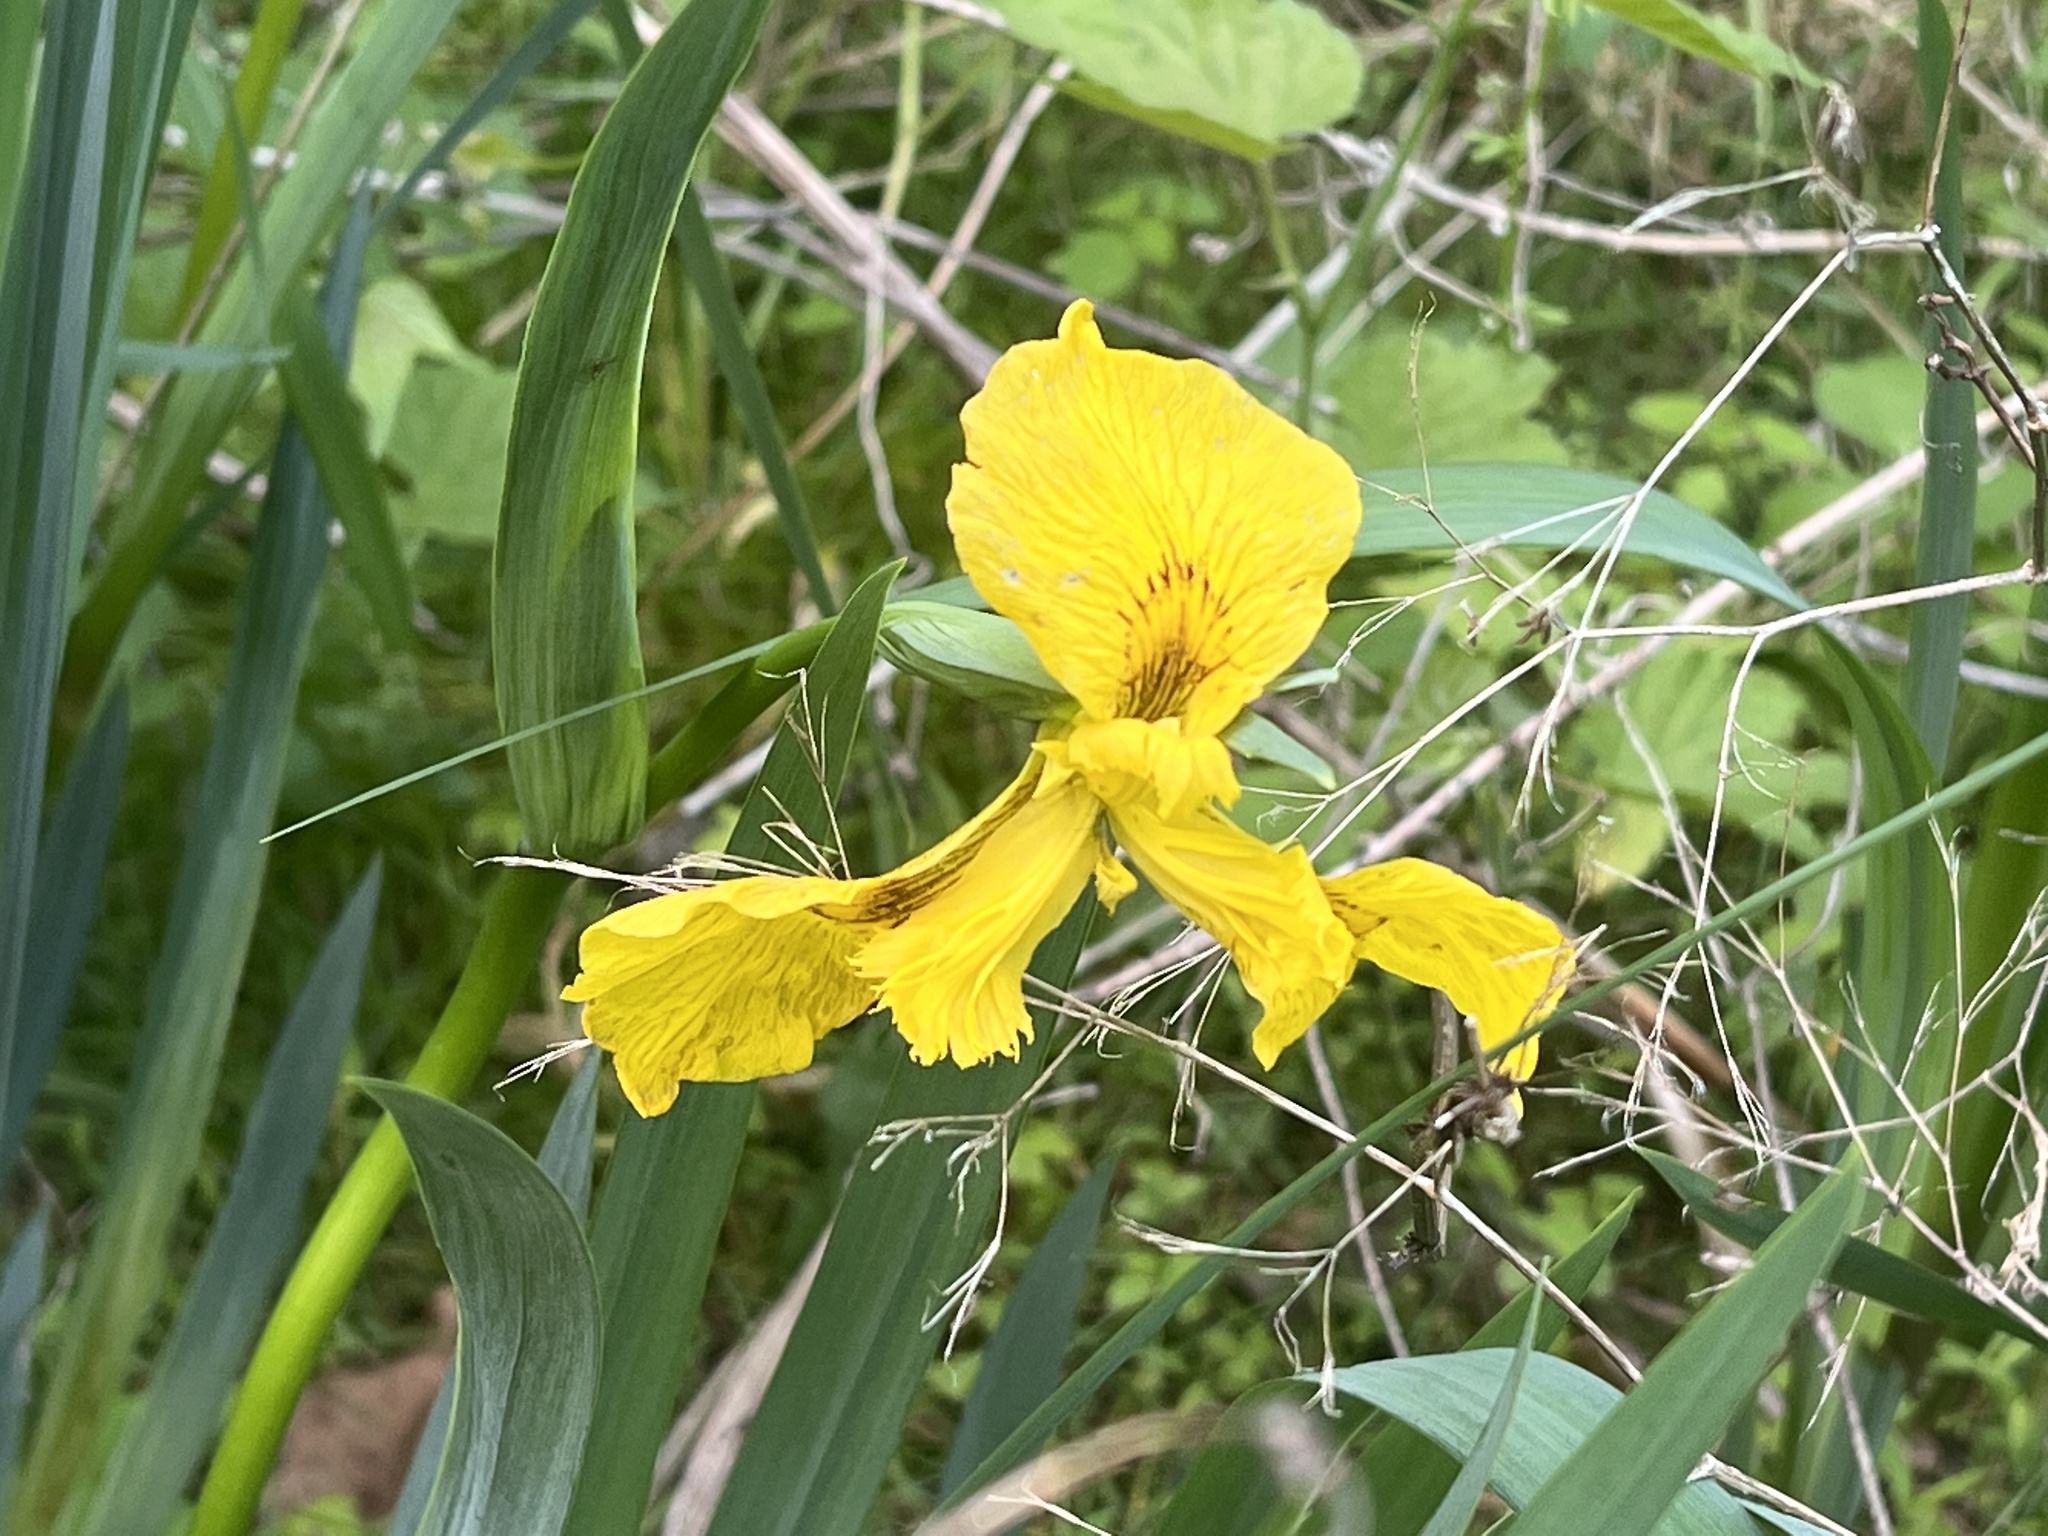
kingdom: Plantae
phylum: Tracheophyta
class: Liliopsida
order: Asparagales
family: Iridaceae
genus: Iris
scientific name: Iris pseudacorus
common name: Yellow flag
